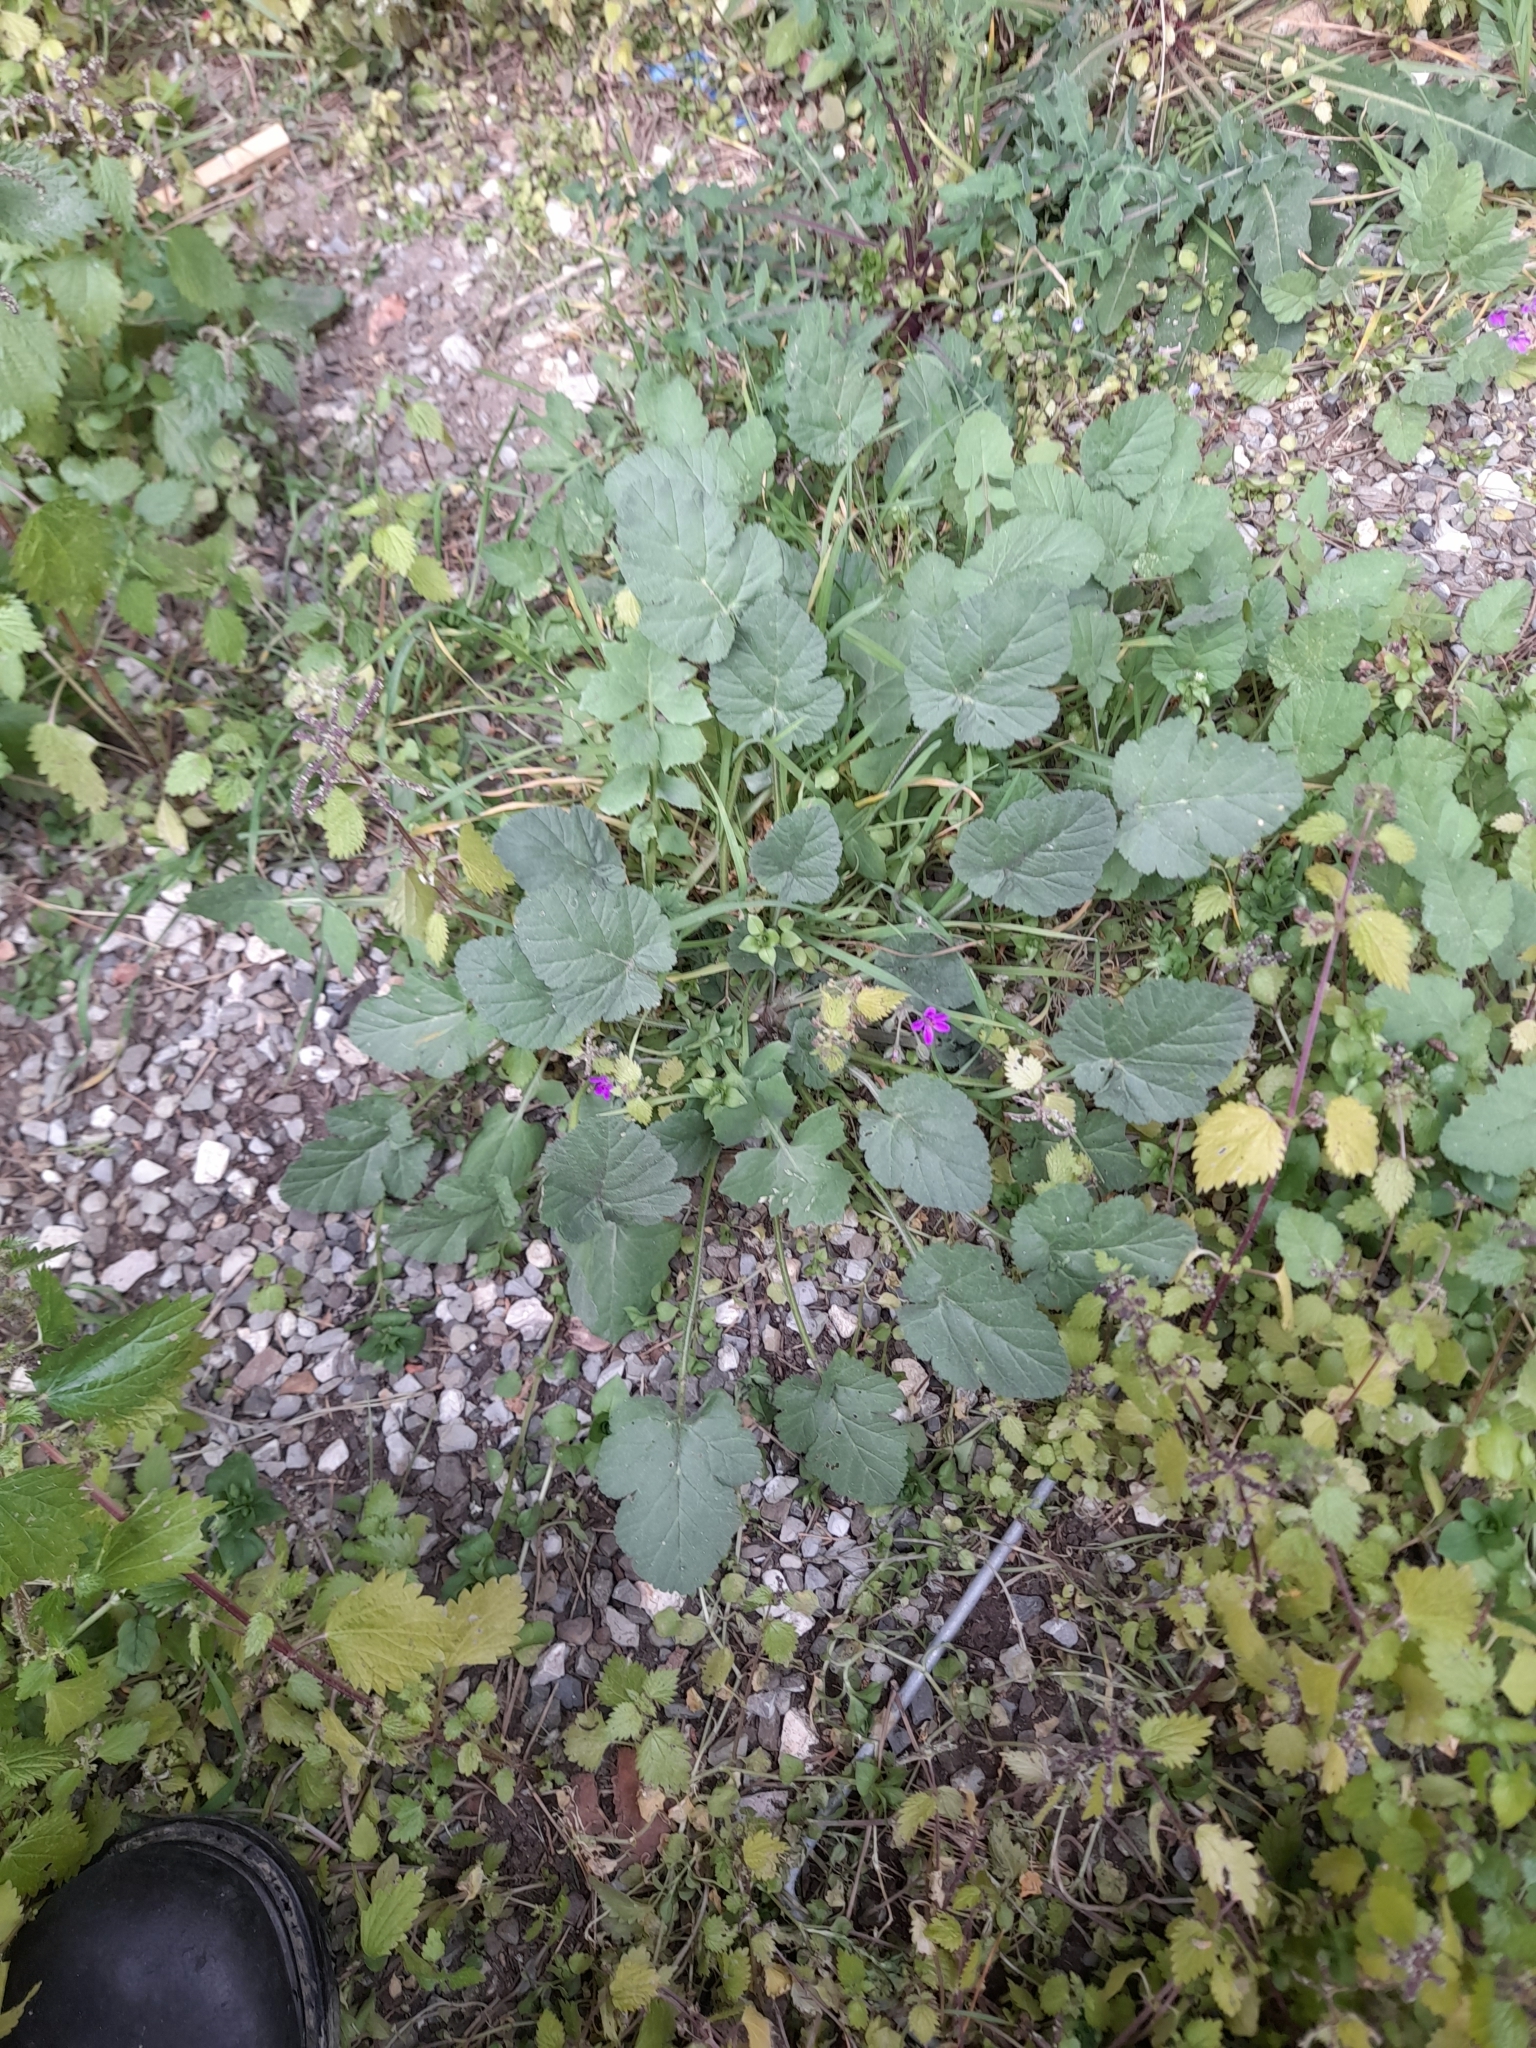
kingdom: Plantae
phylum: Tracheophyta
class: Magnoliopsida
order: Geraniales
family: Geraniaceae
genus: Erodium
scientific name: Erodium malacoides
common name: Soft stork's-bill
